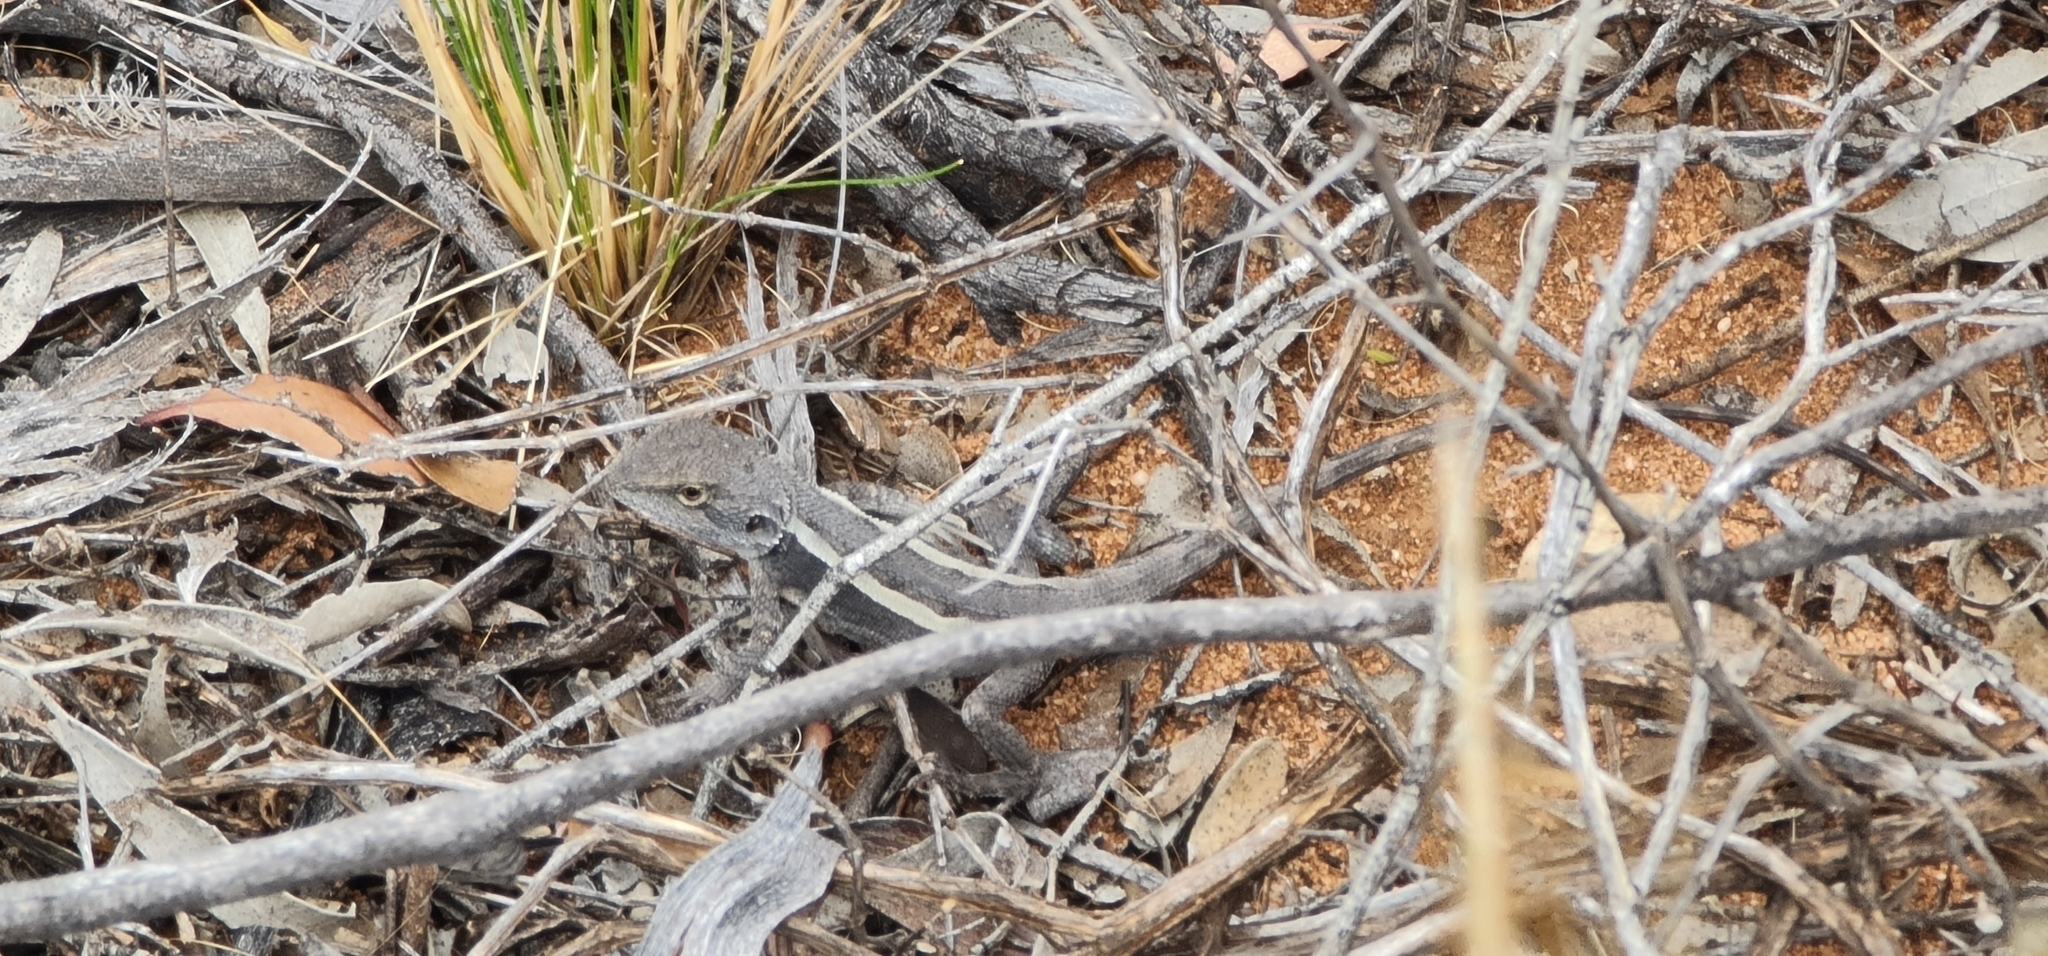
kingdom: Animalia
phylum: Chordata
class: Squamata
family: Agamidae
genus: Diporiphora
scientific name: Diporiphora nobbi
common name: Nobbi
